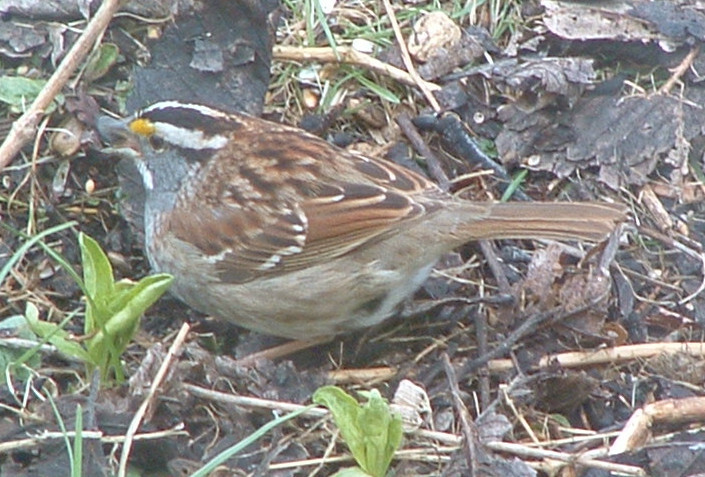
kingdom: Animalia
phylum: Chordata
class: Aves
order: Passeriformes
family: Passerellidae
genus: Zonotrichia
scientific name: Zonotrichia albicollis
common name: White-throated sparrow
